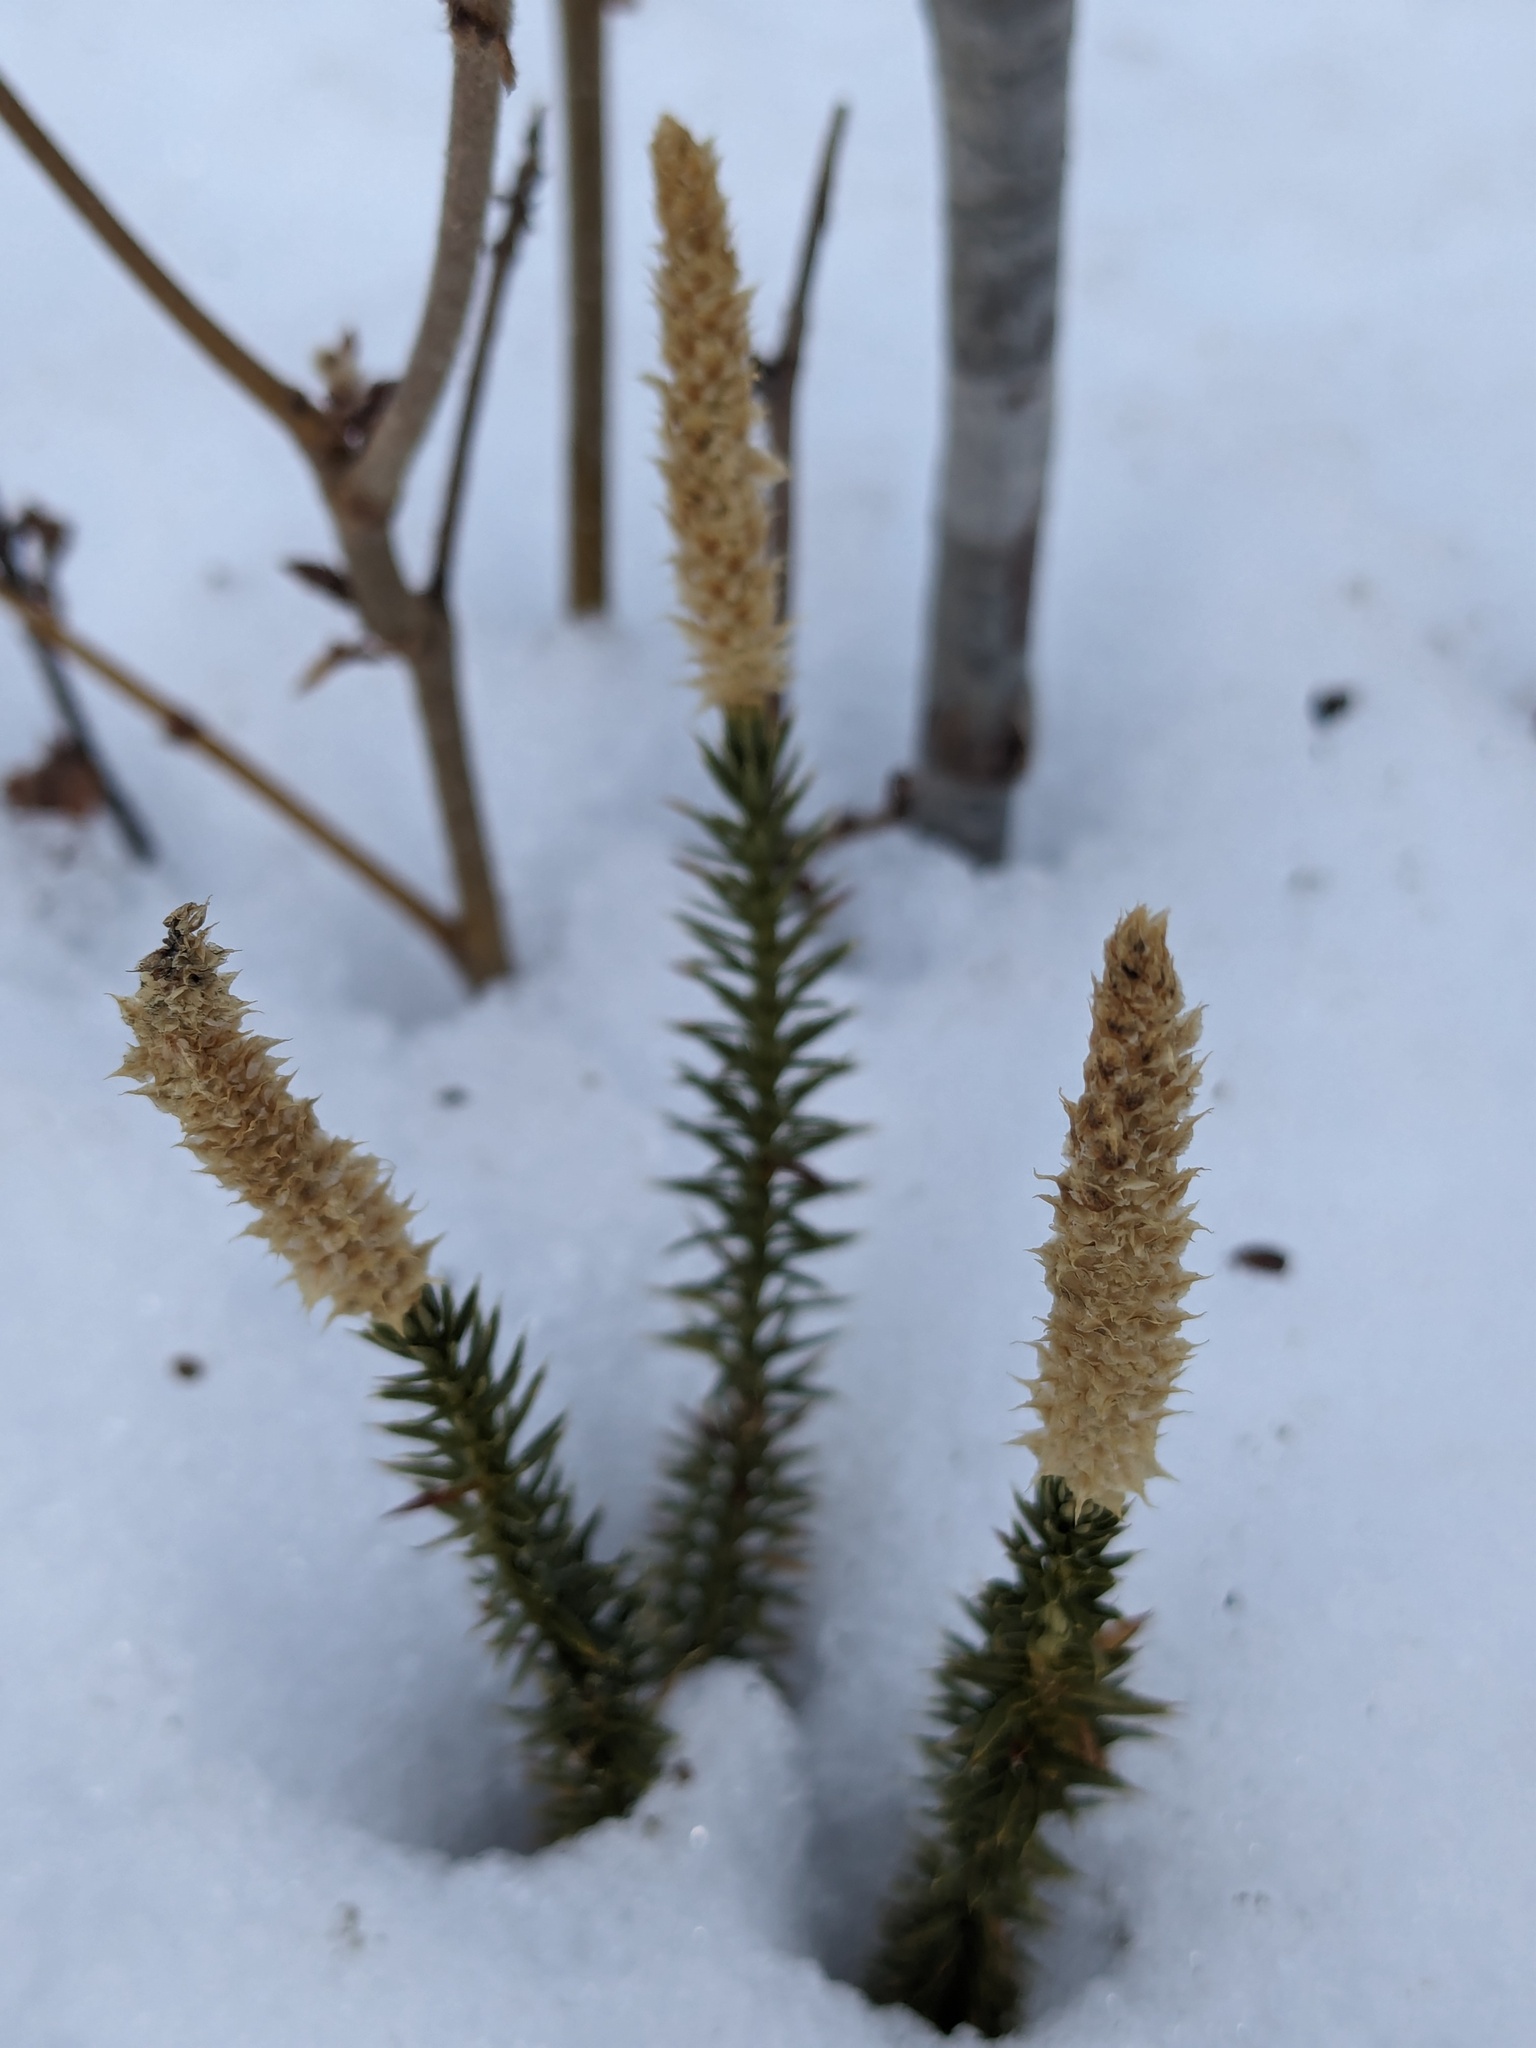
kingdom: Plantae
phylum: Tracheophyta
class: Lycopodiopsida
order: Lycopodiales
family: Lycopodiaceae
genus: Spinulum
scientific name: Spinulum annotinum
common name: Interrupted club-moss
